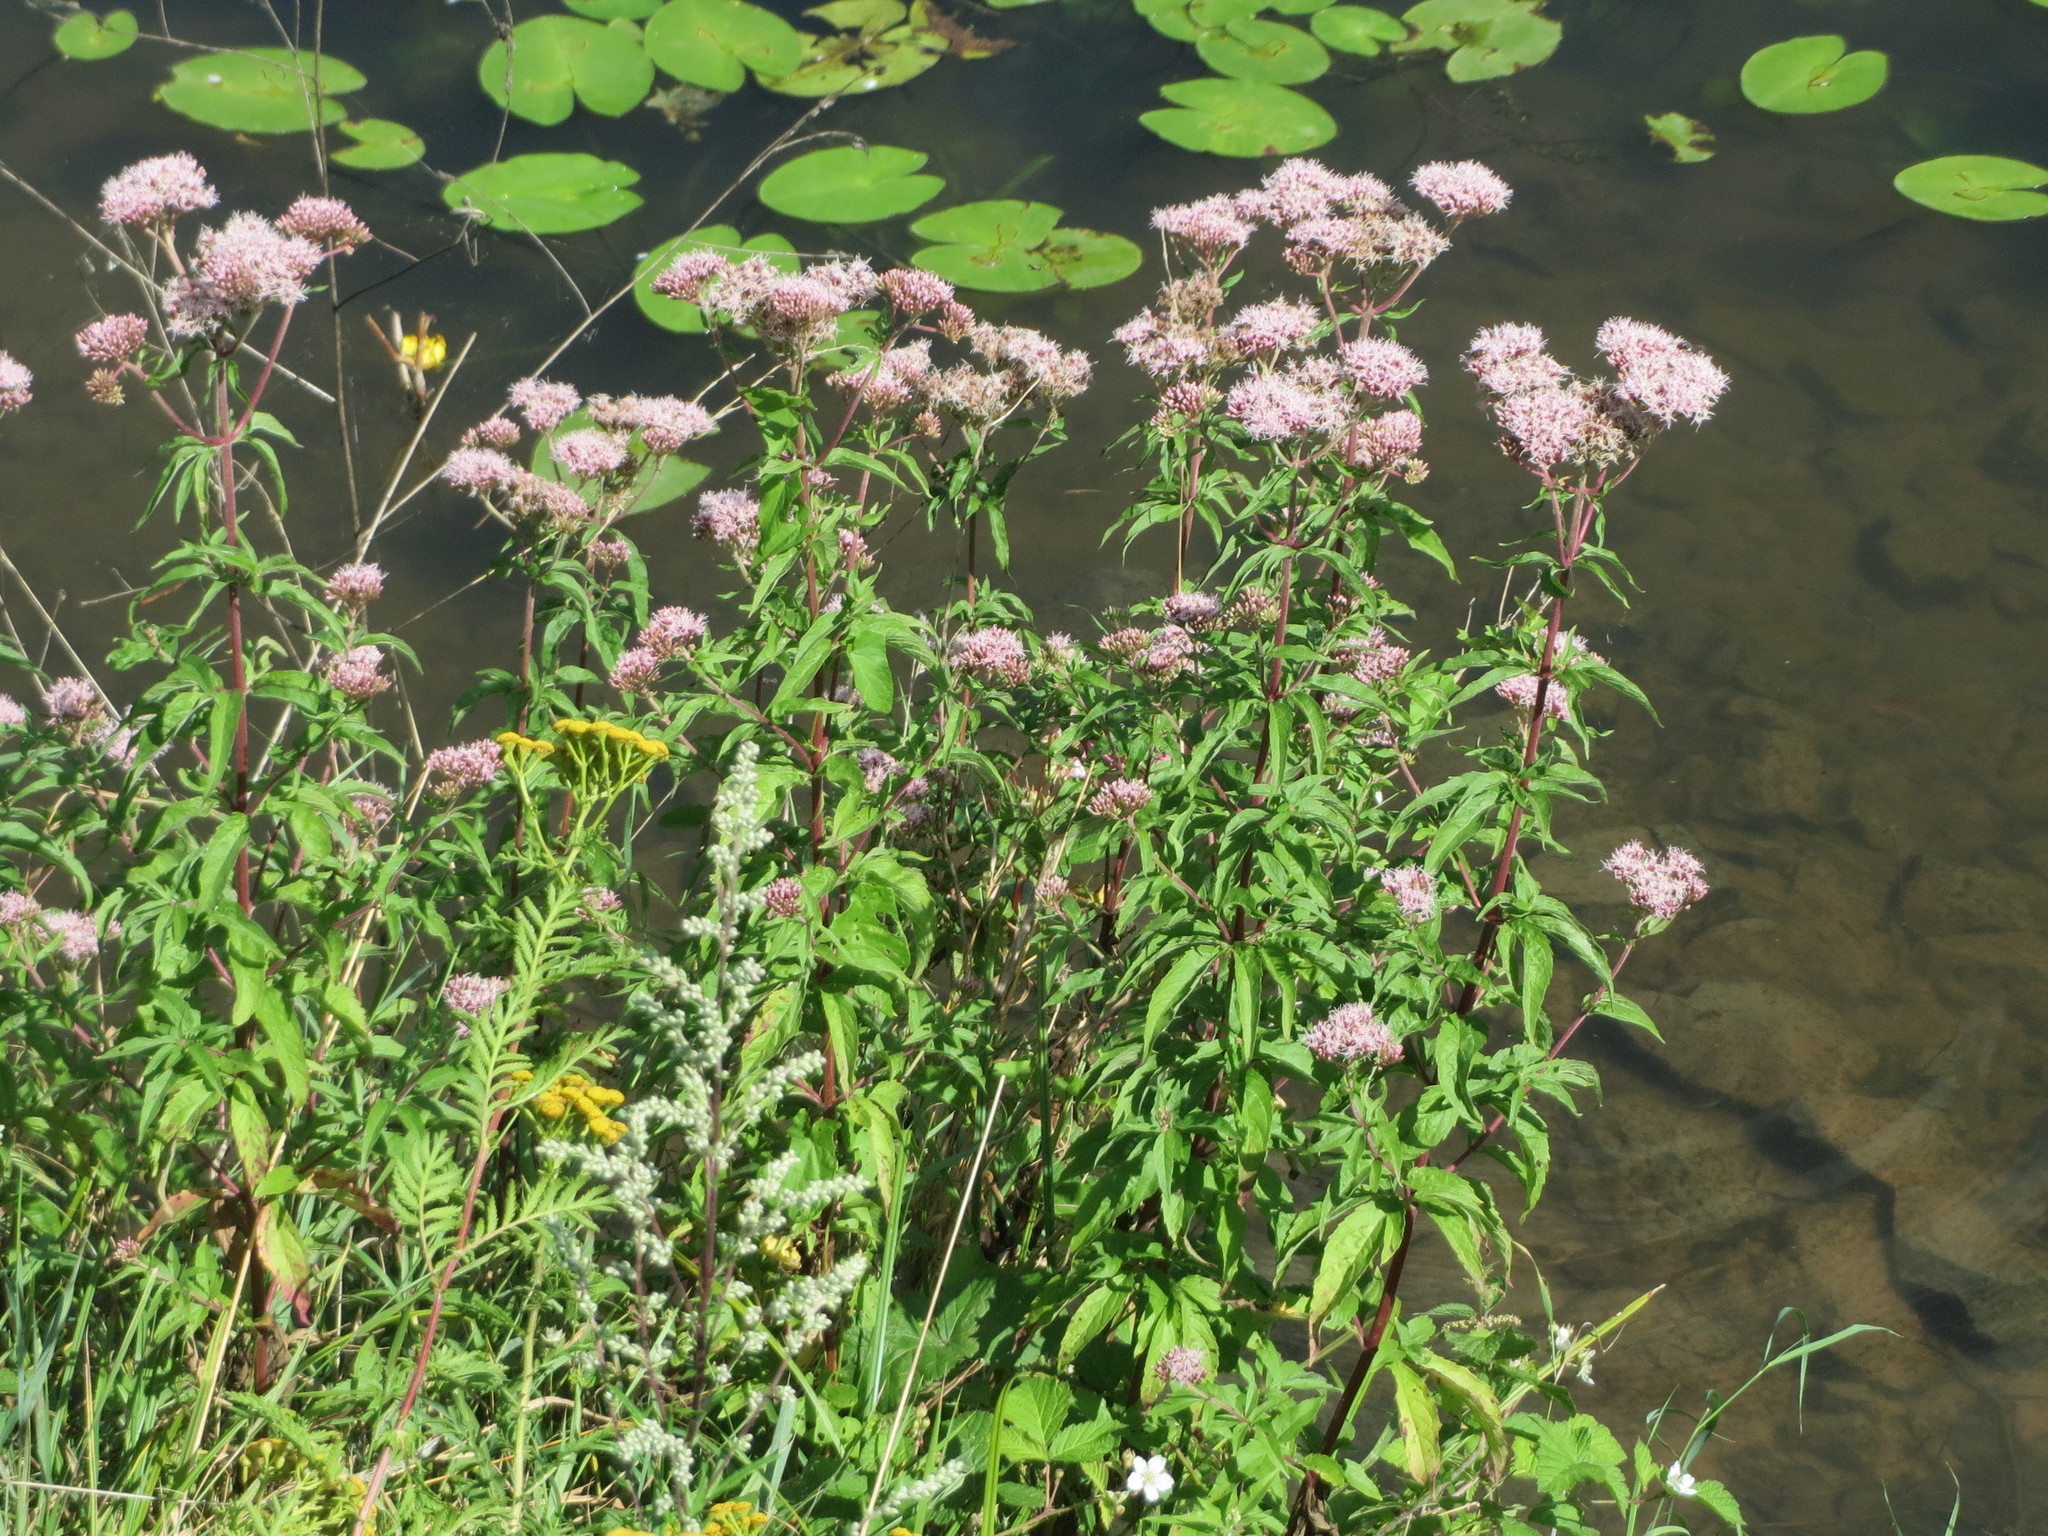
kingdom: Plantae
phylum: Tracheophyta
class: Magnoliopsida
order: Asterales
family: Asteraceae
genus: Eupatorium
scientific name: Eupatorium cannabinum
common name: Hemp-agrimony
